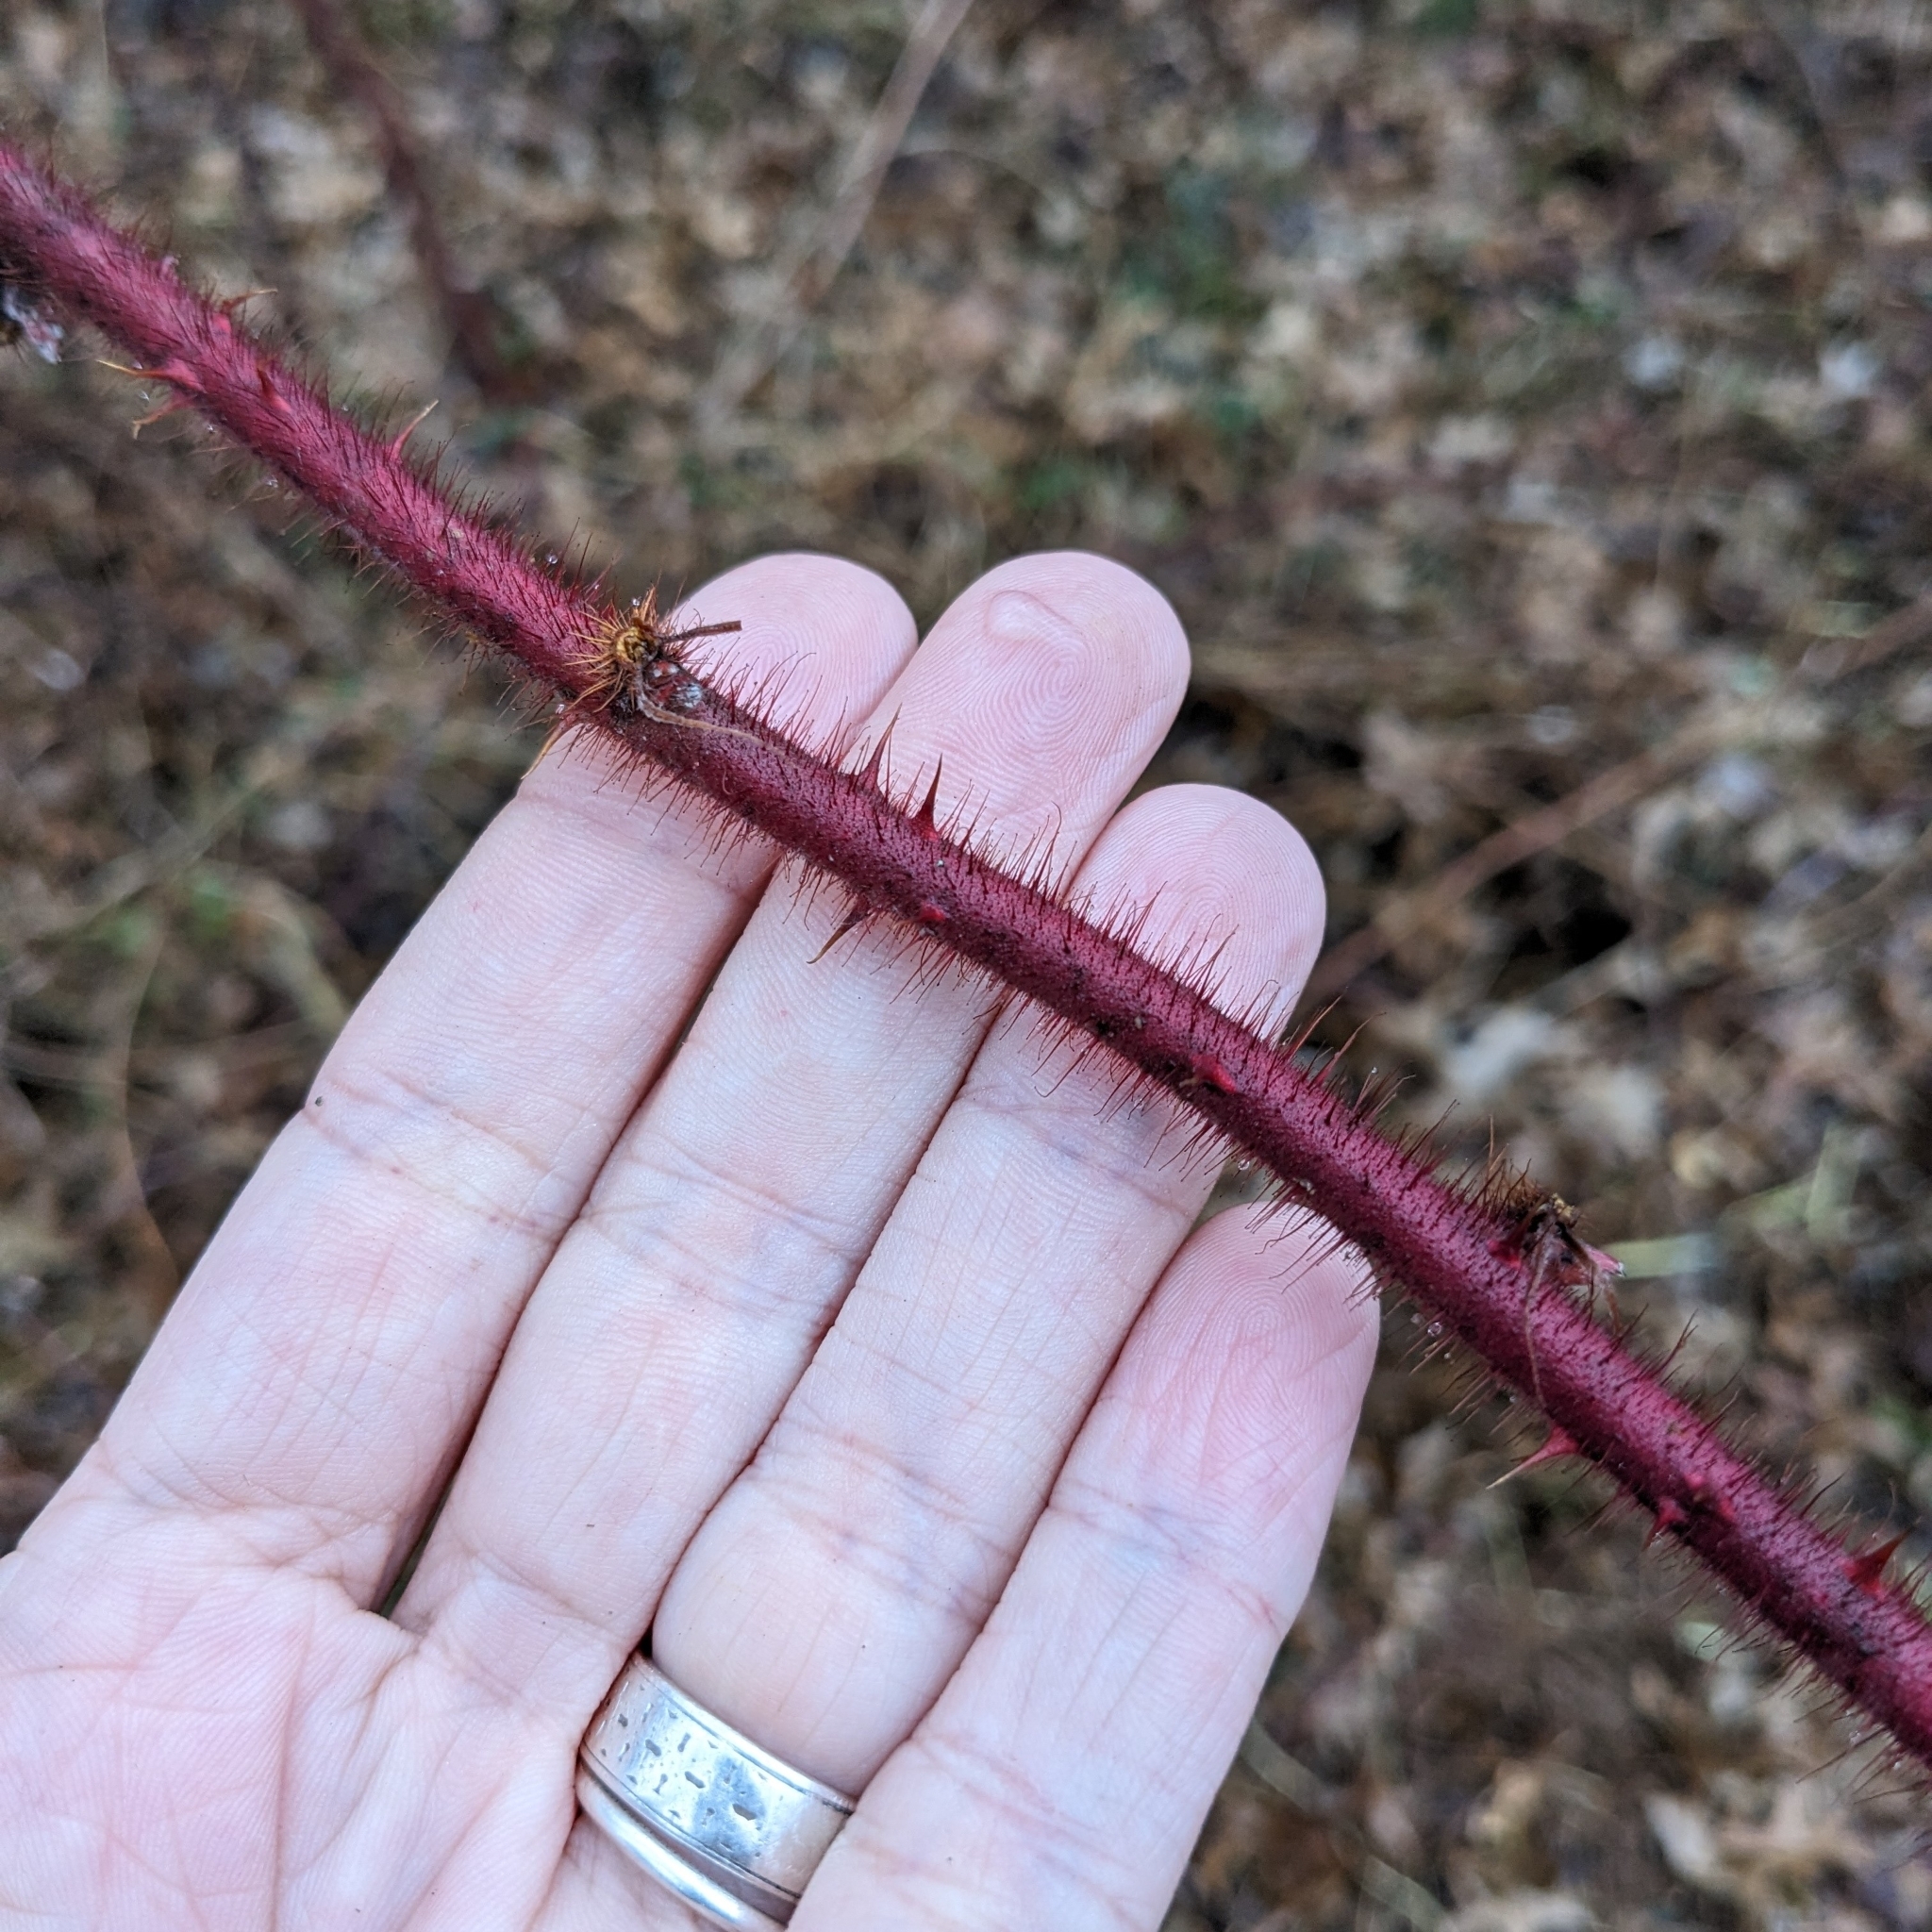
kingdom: Plantae
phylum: Tracheophyta
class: Magnoliopsida
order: Rosales
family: Rosaceae
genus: Rubus
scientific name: Rubus phoenicolasius
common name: Japanese wineberry
